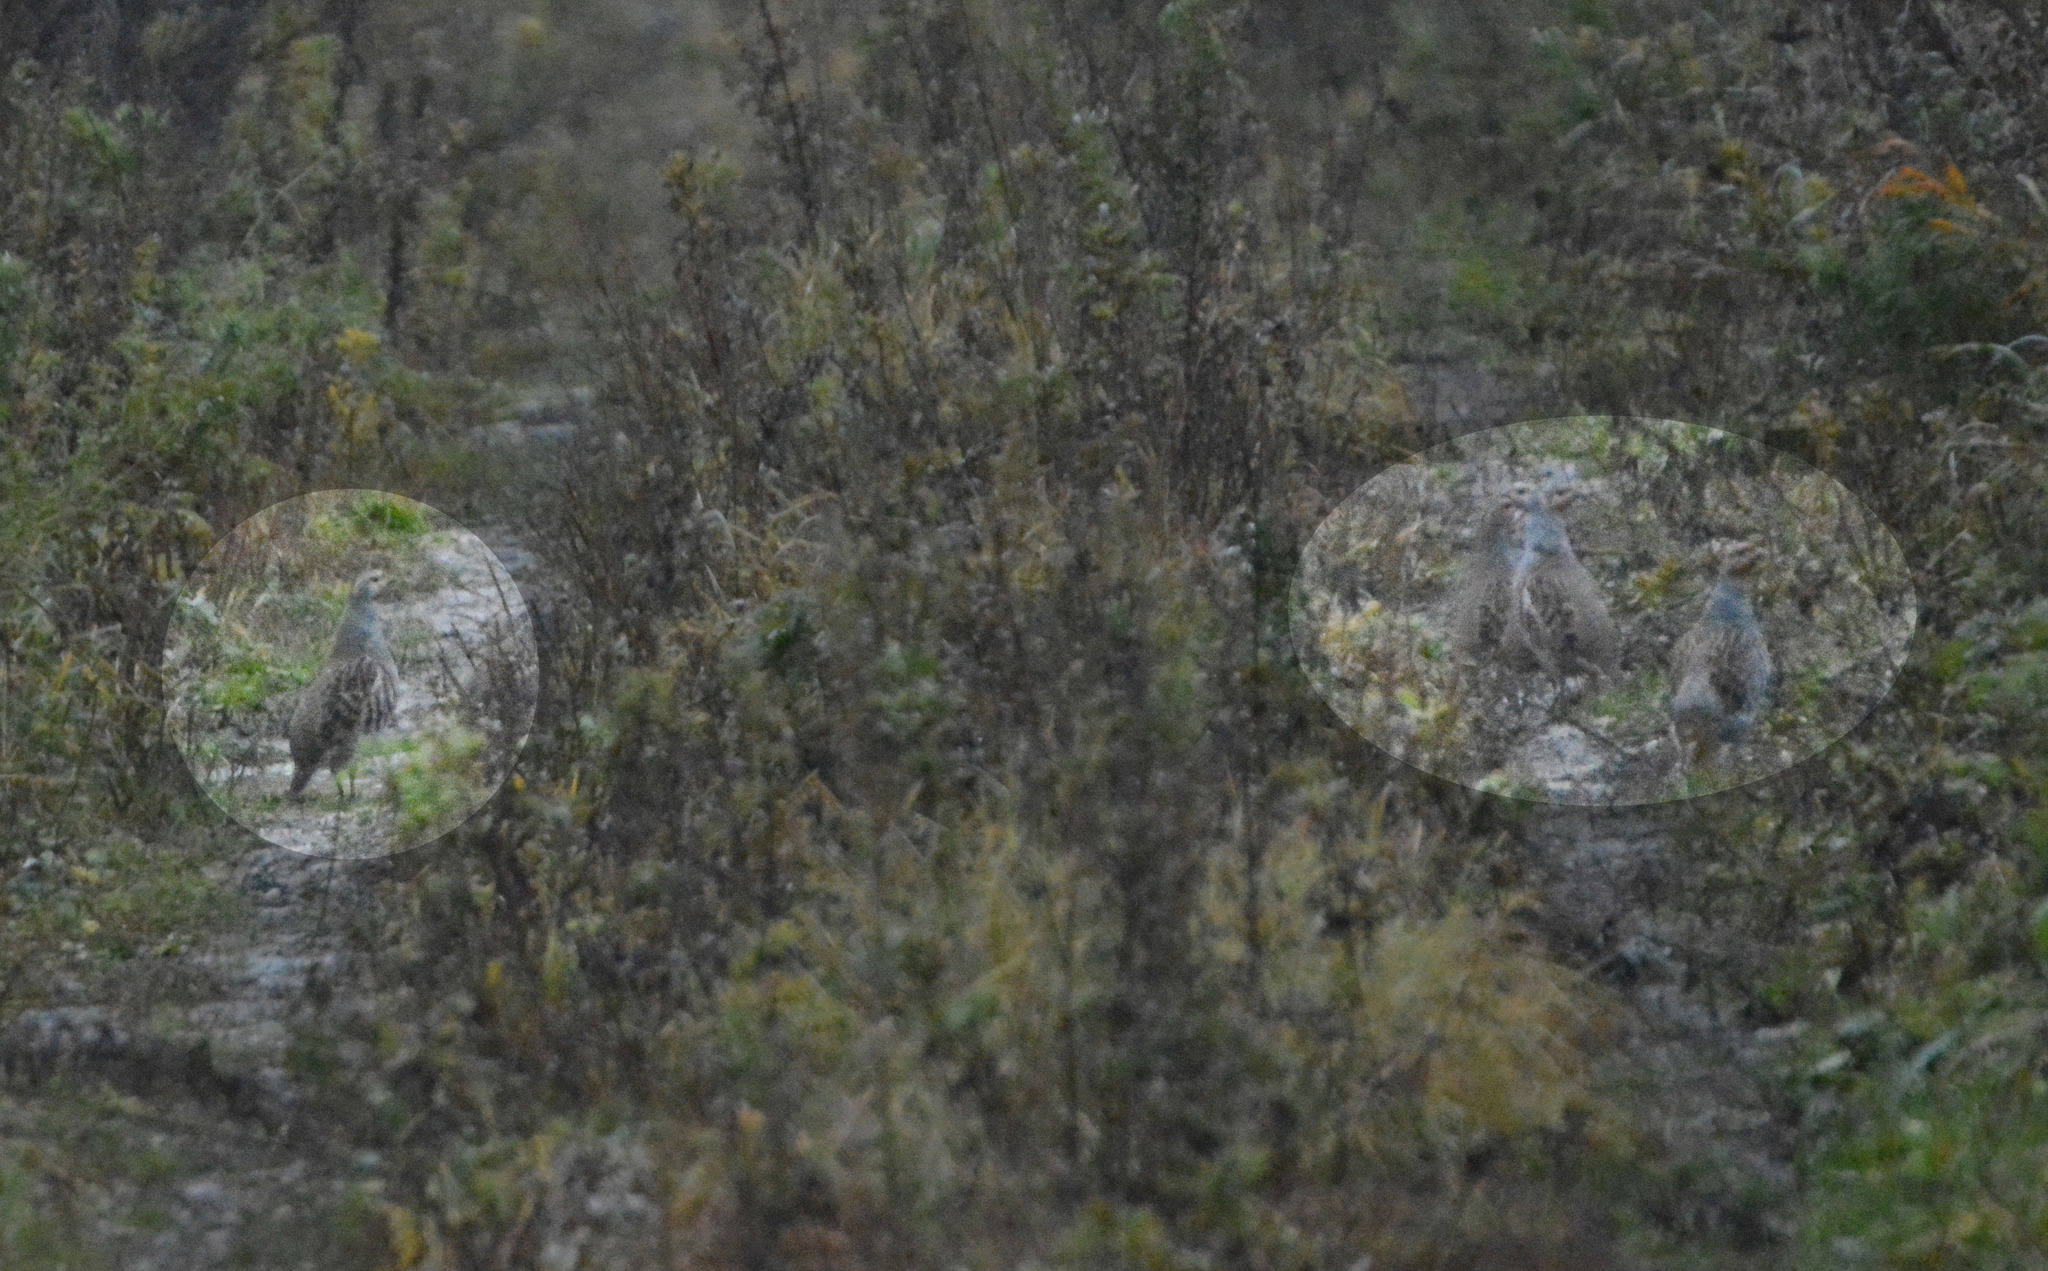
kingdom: Animalia
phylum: Chordata
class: Aves
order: Galliformes
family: Phasianidae
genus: Perdix
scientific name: Perdix perdix
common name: Grey partridge
